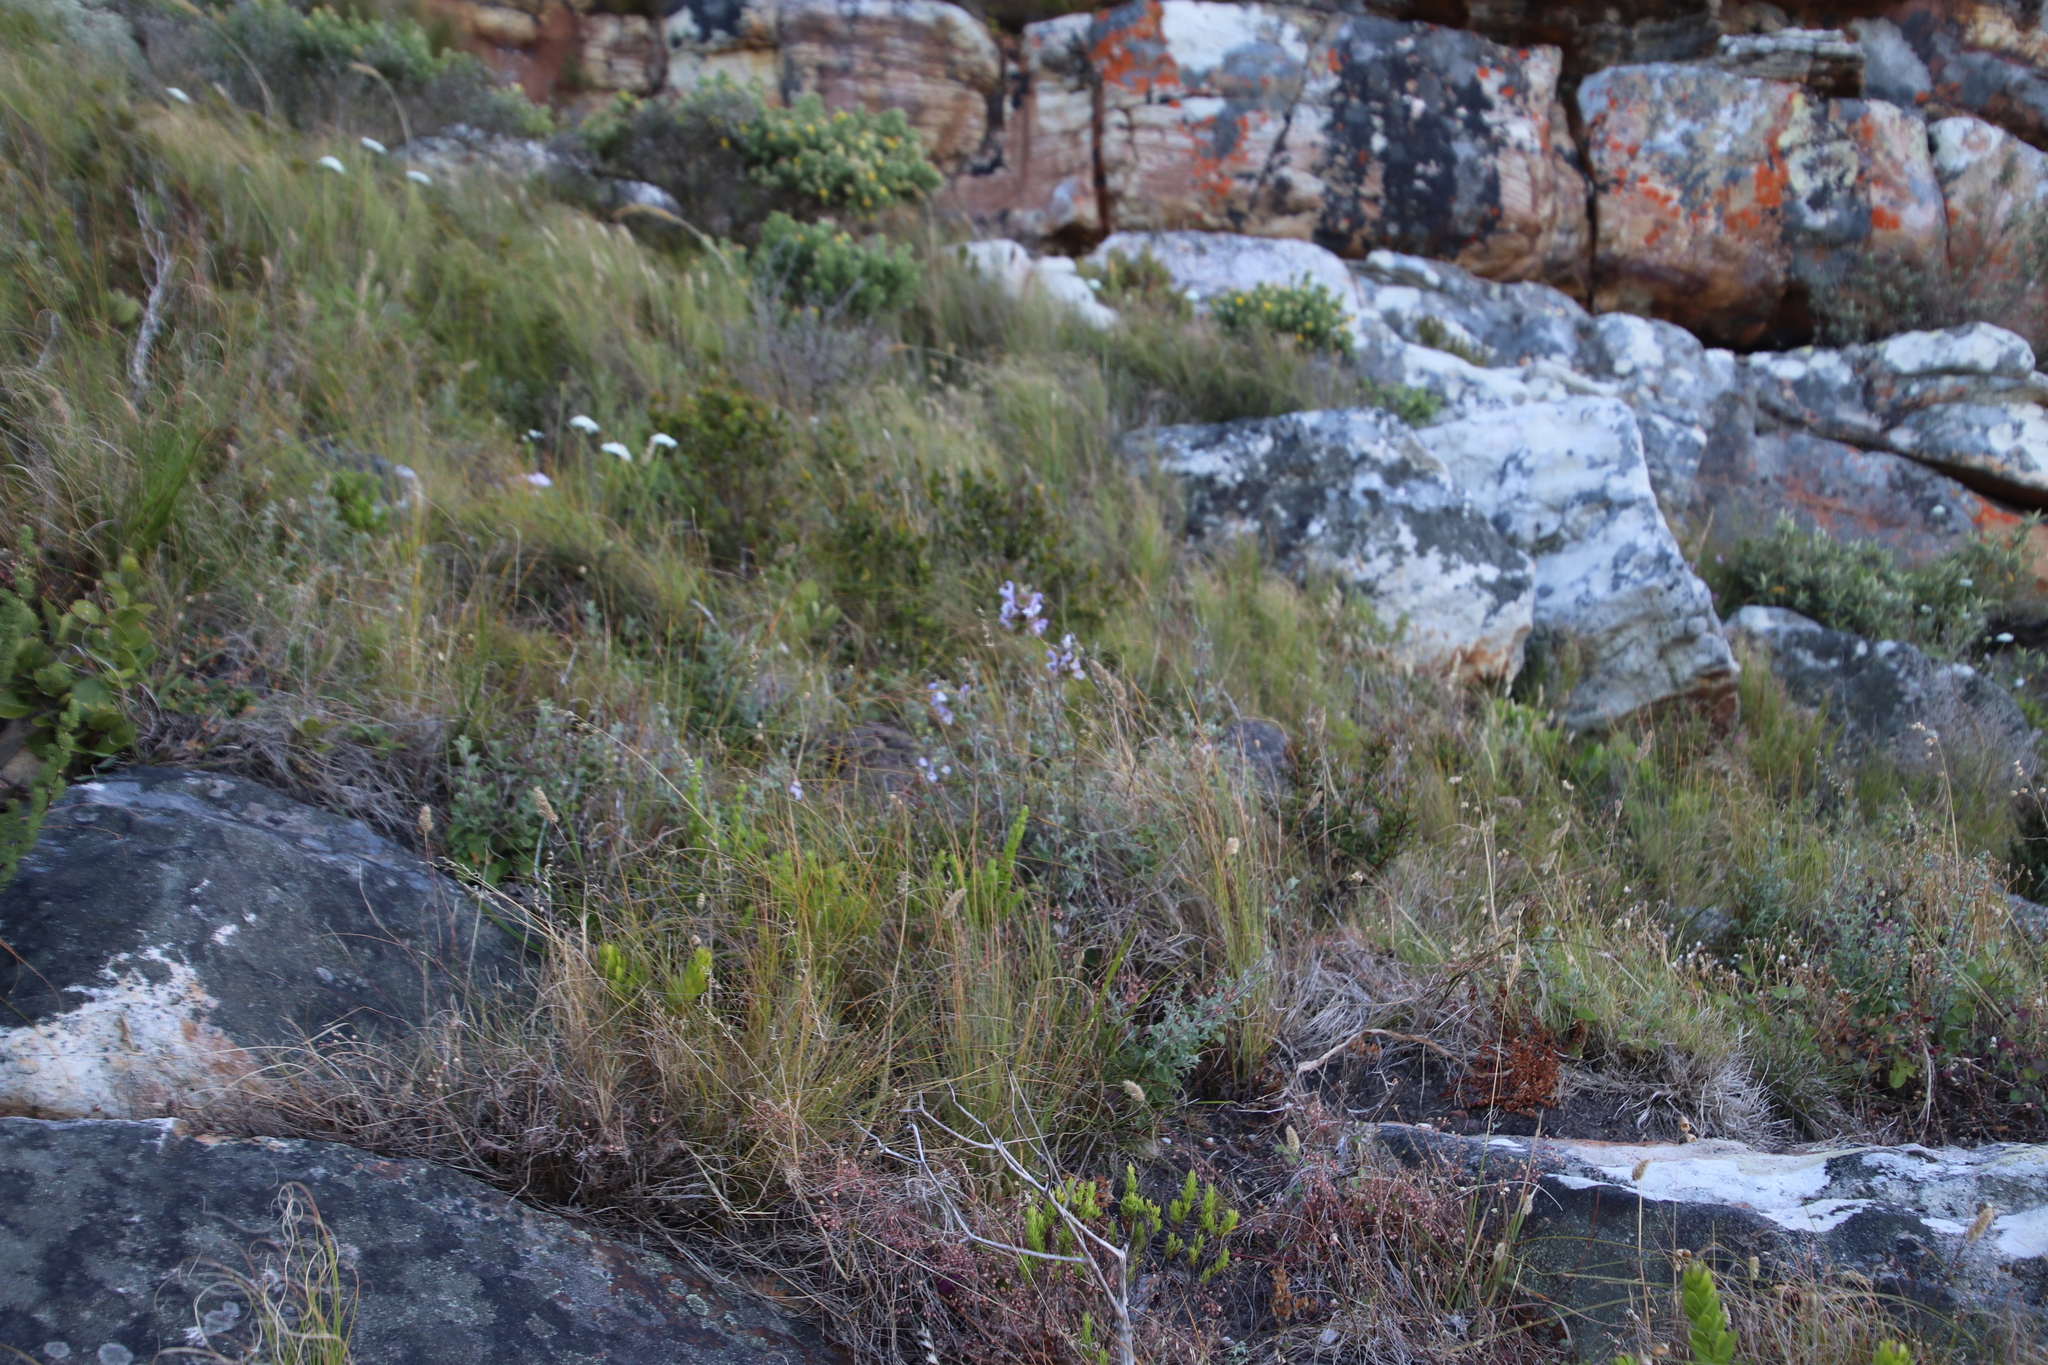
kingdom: Plantae
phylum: Tracheophyta
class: Magnoliopsida
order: Lamiales
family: Lamiaceae
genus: Salvia
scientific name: Salvia africana
